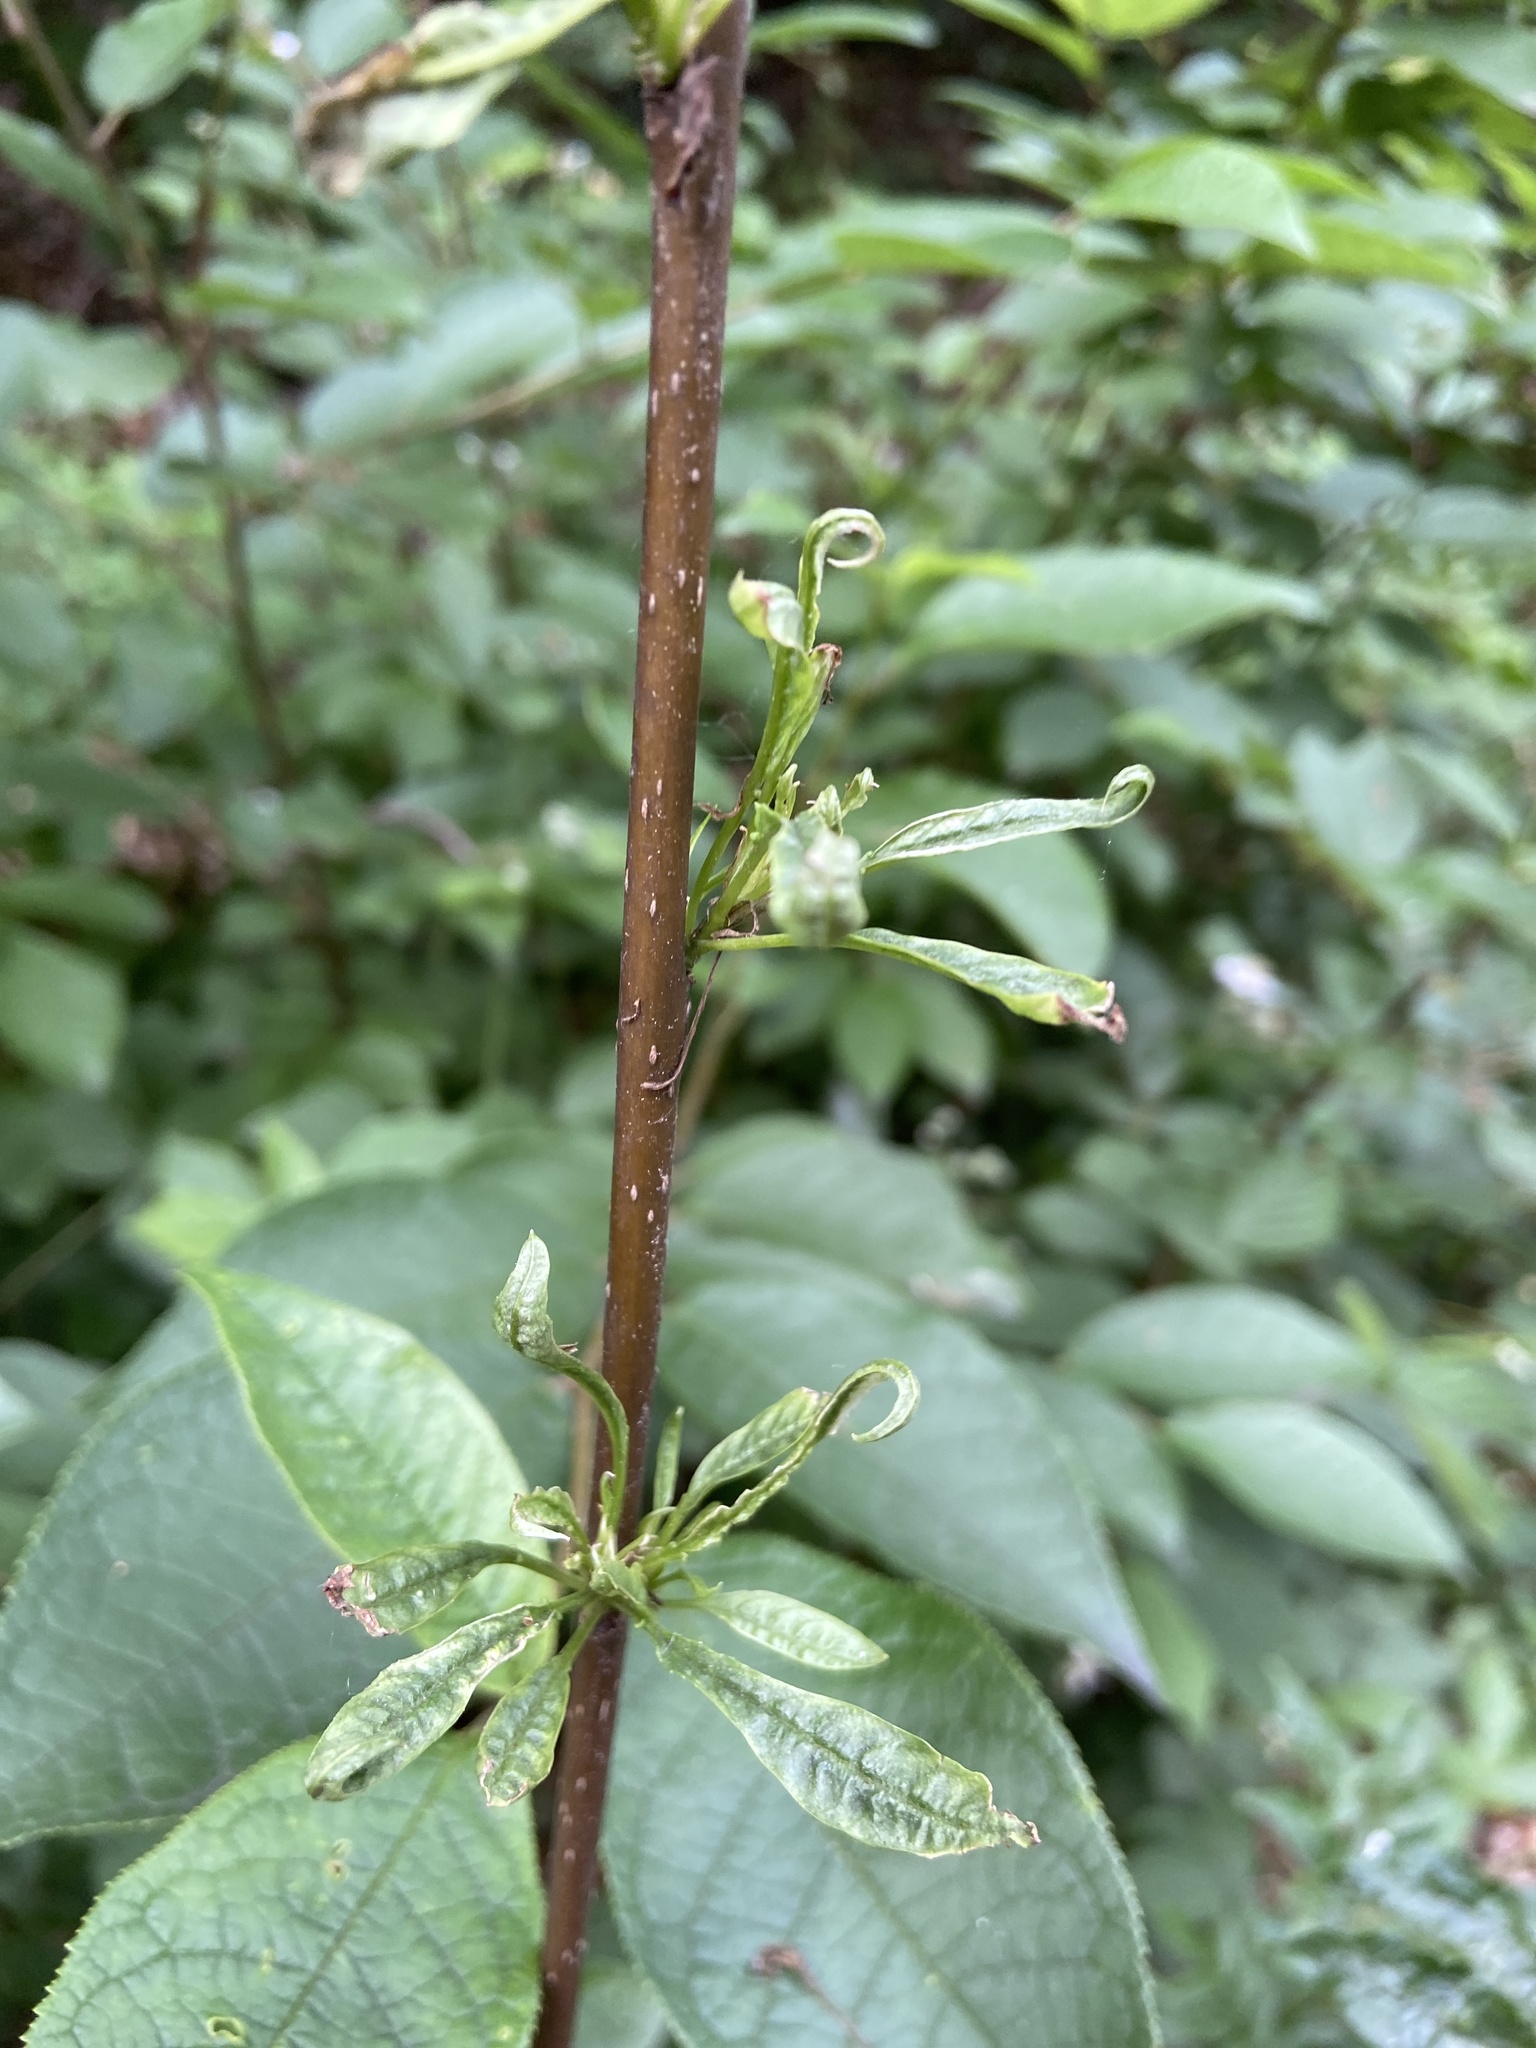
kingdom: Plantae
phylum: Tracheophyta
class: Magnoliopsida
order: Rosales
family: Rosaceae
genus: Prunus
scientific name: Prunus padus
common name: Bird cherry
